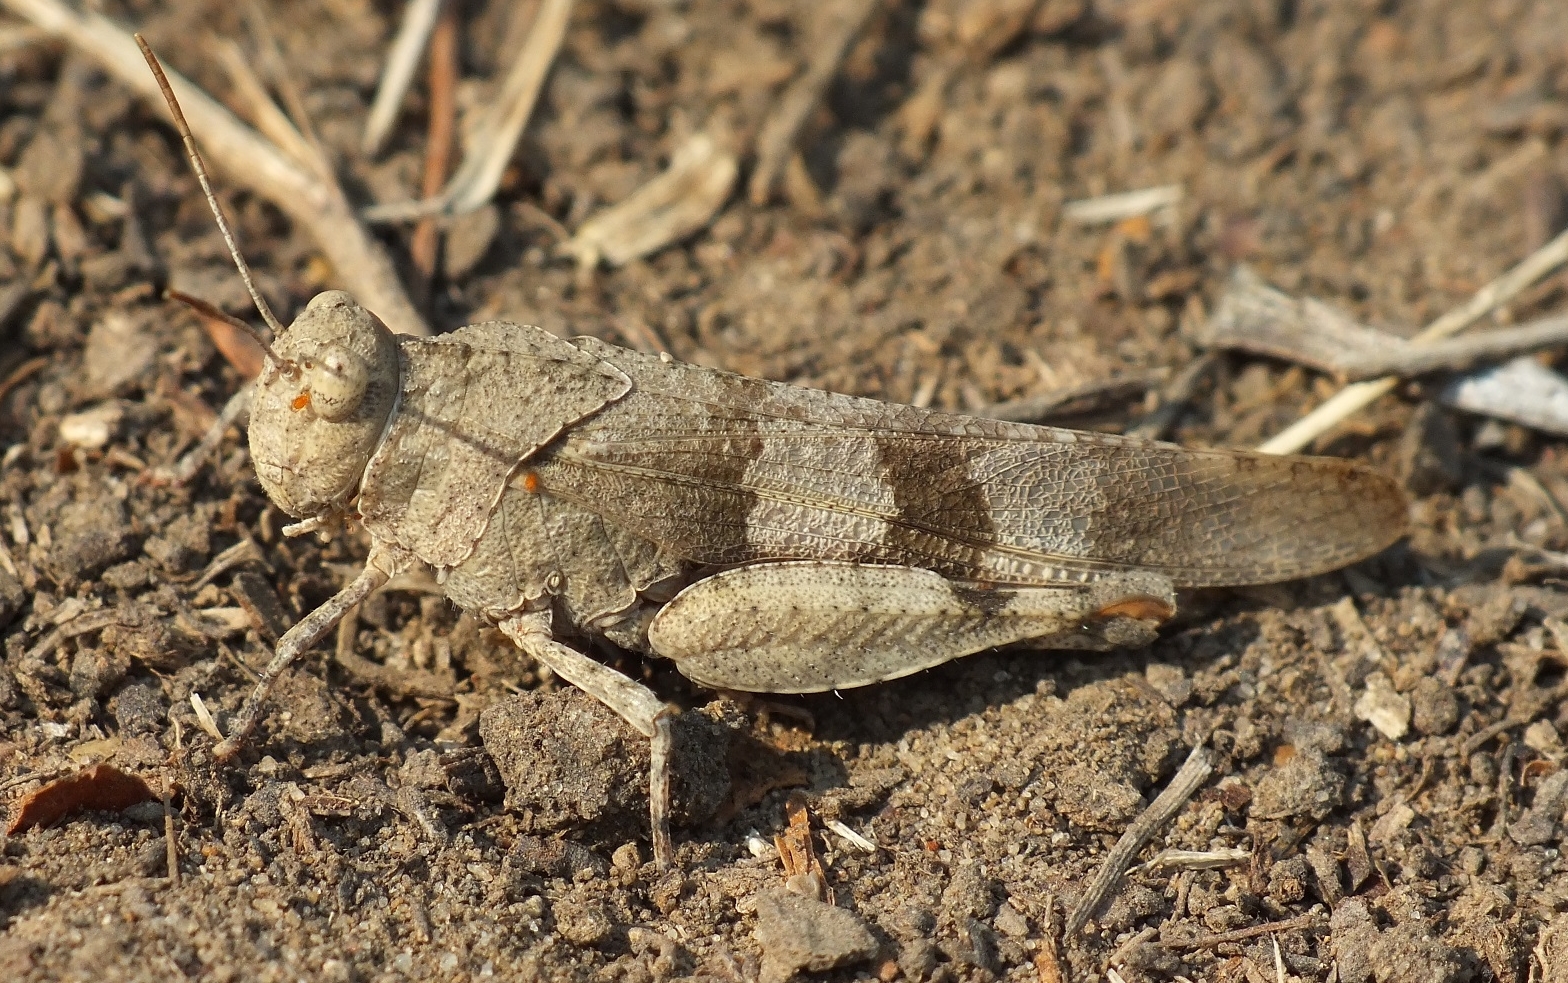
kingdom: Animalia
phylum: Arthropoda
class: Insecta
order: Orthoptera
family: Acrididae
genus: Oedipoda
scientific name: Oedipoda caerulescens
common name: Blue-winged grasshopper
